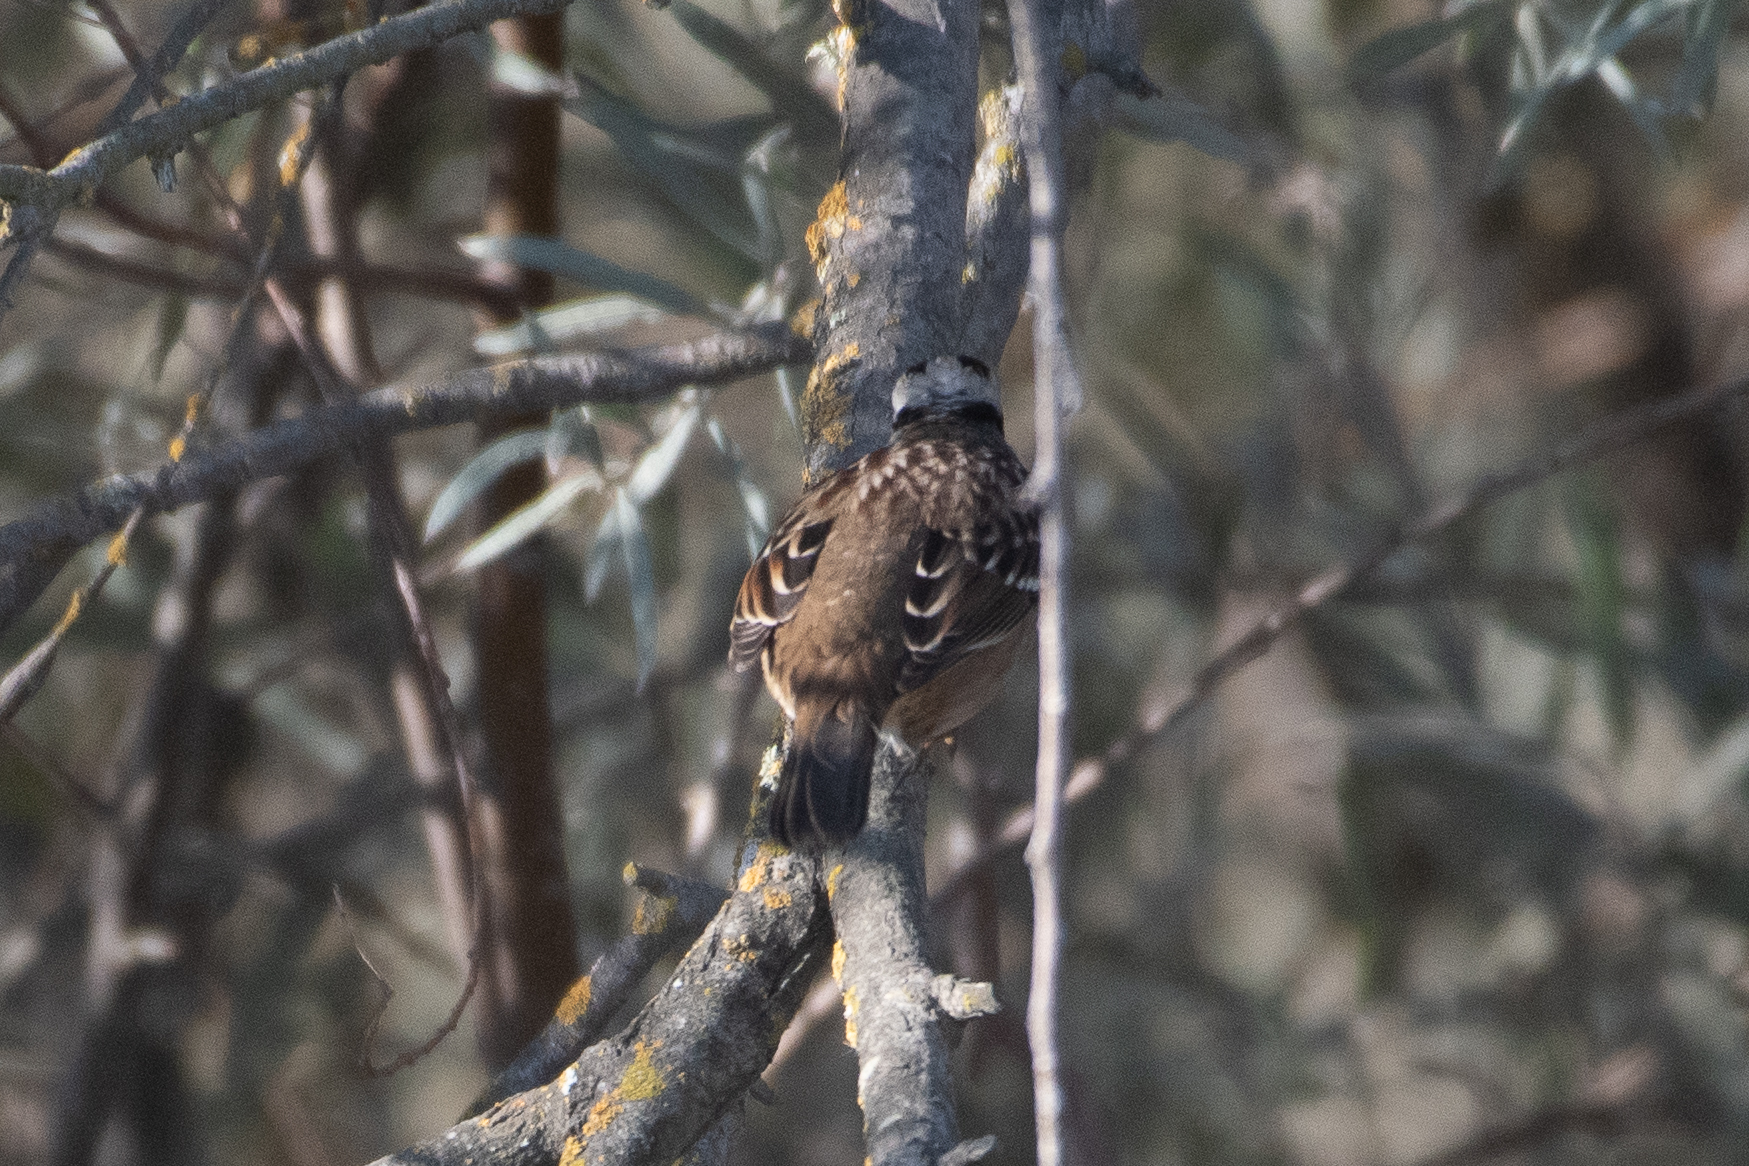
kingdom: Animalia
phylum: Chordata
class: Aves
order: Passeriformes
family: Passerellidae
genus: Zonotrichia
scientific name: Zonotrichia leucophrys
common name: White-crowned sparrow
